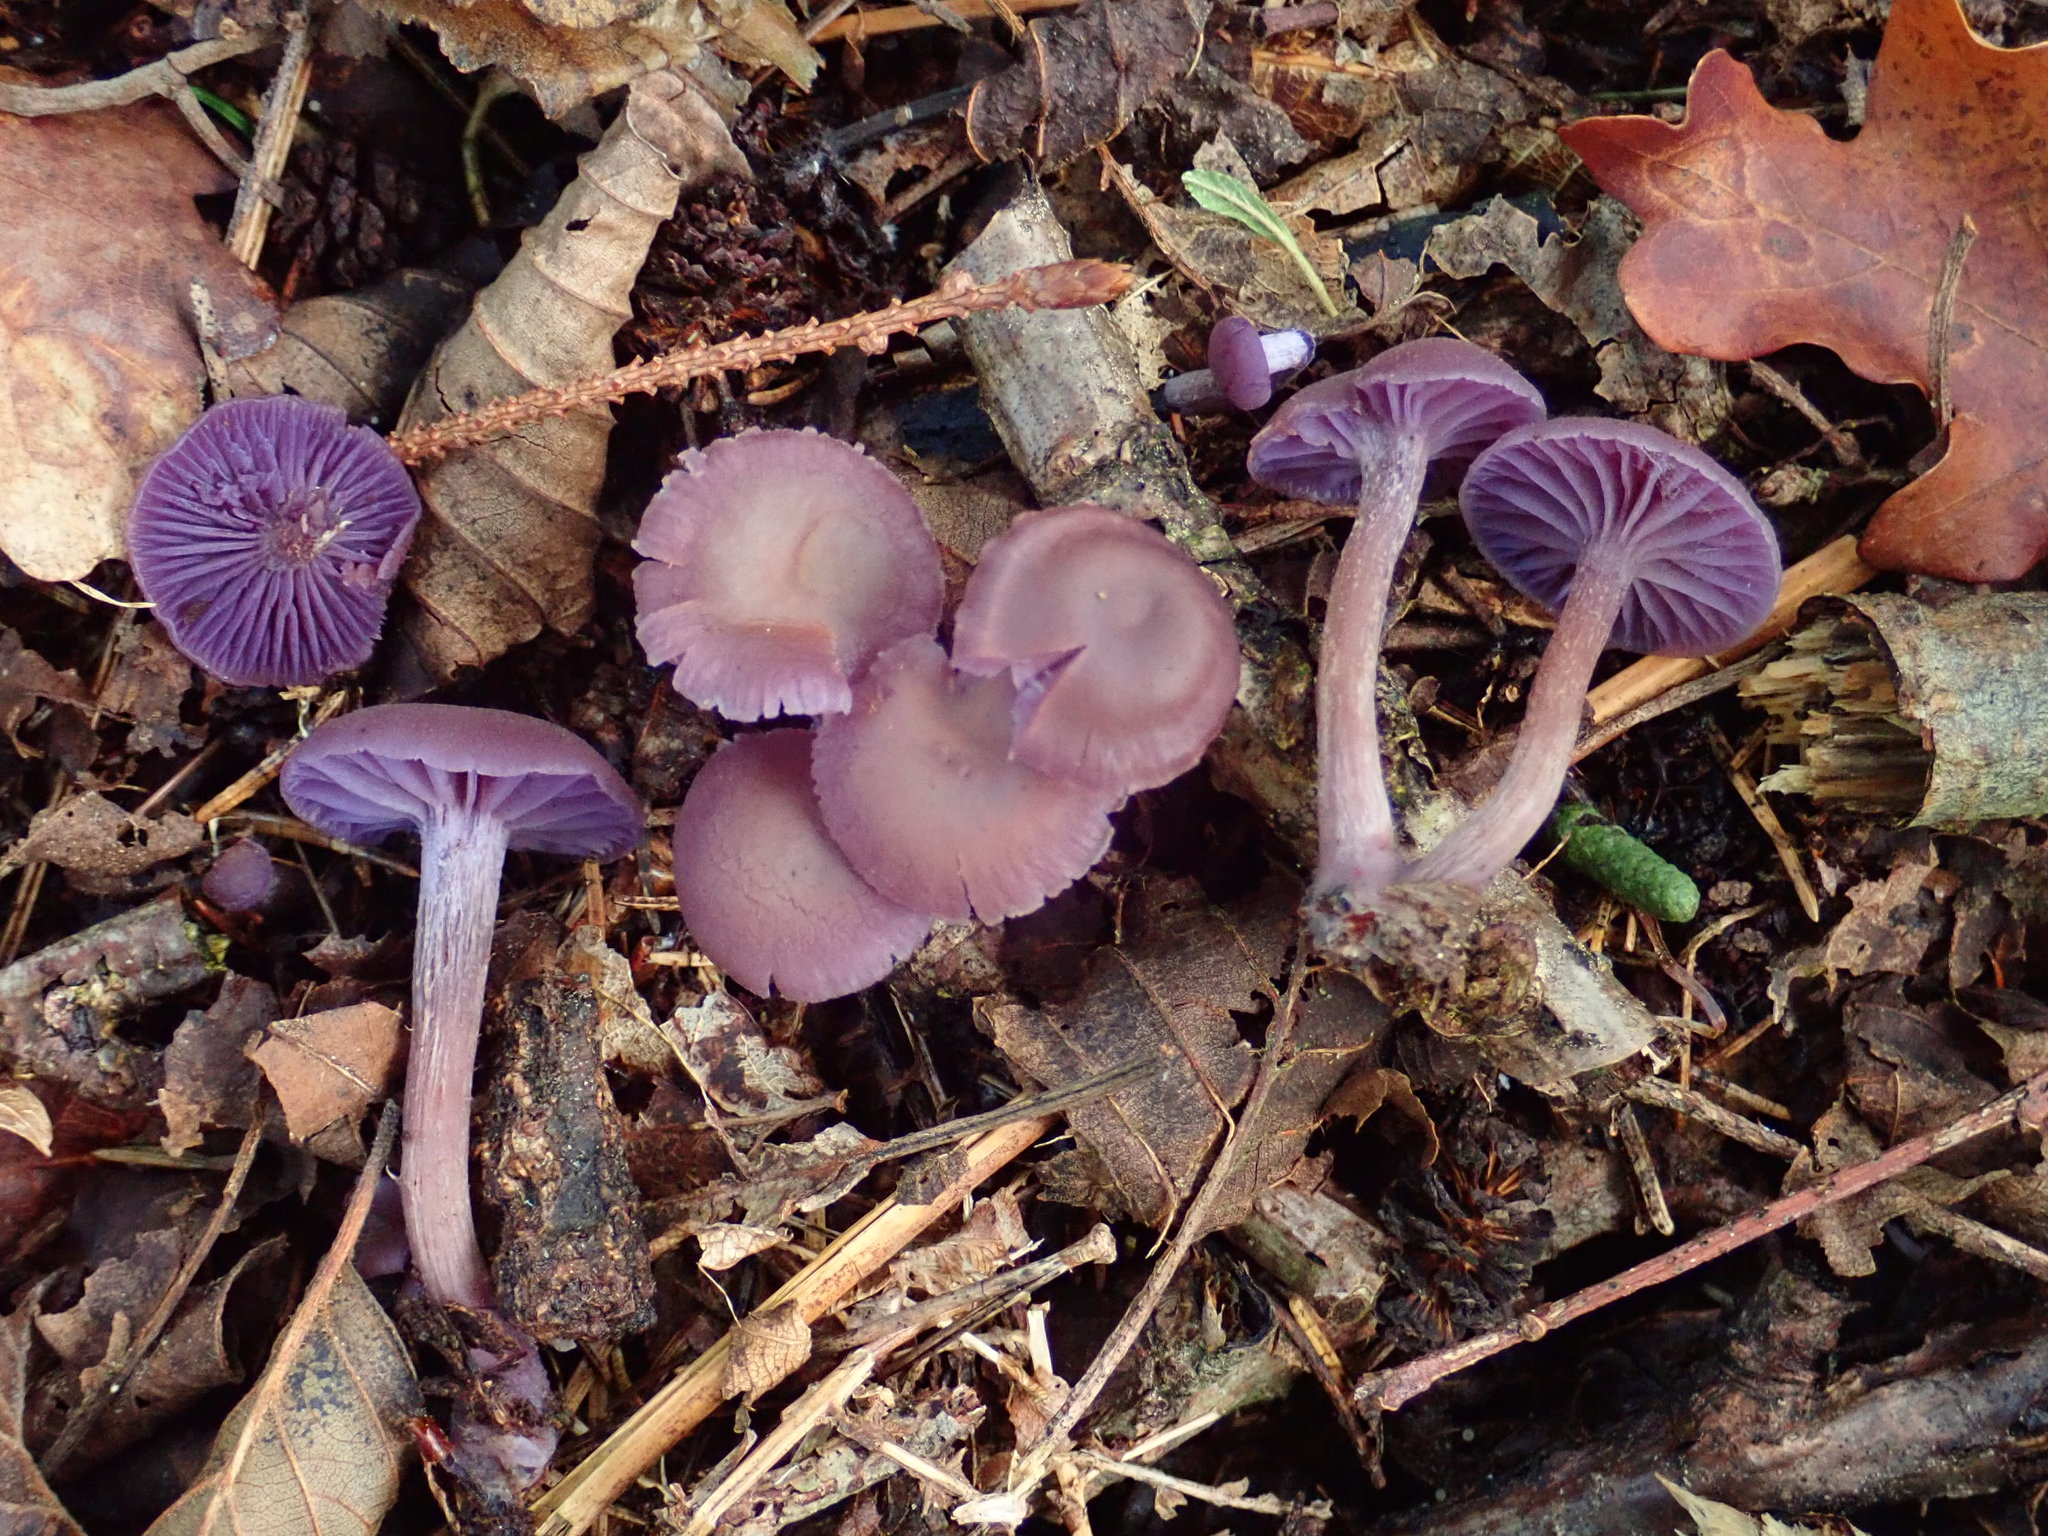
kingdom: Fungi
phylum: Basidiomycota
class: Agaricomycetes
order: Agaricales
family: Hydnangiaceae
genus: Laccaria
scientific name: Laccaria amethystina
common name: Amethyst deceiver
